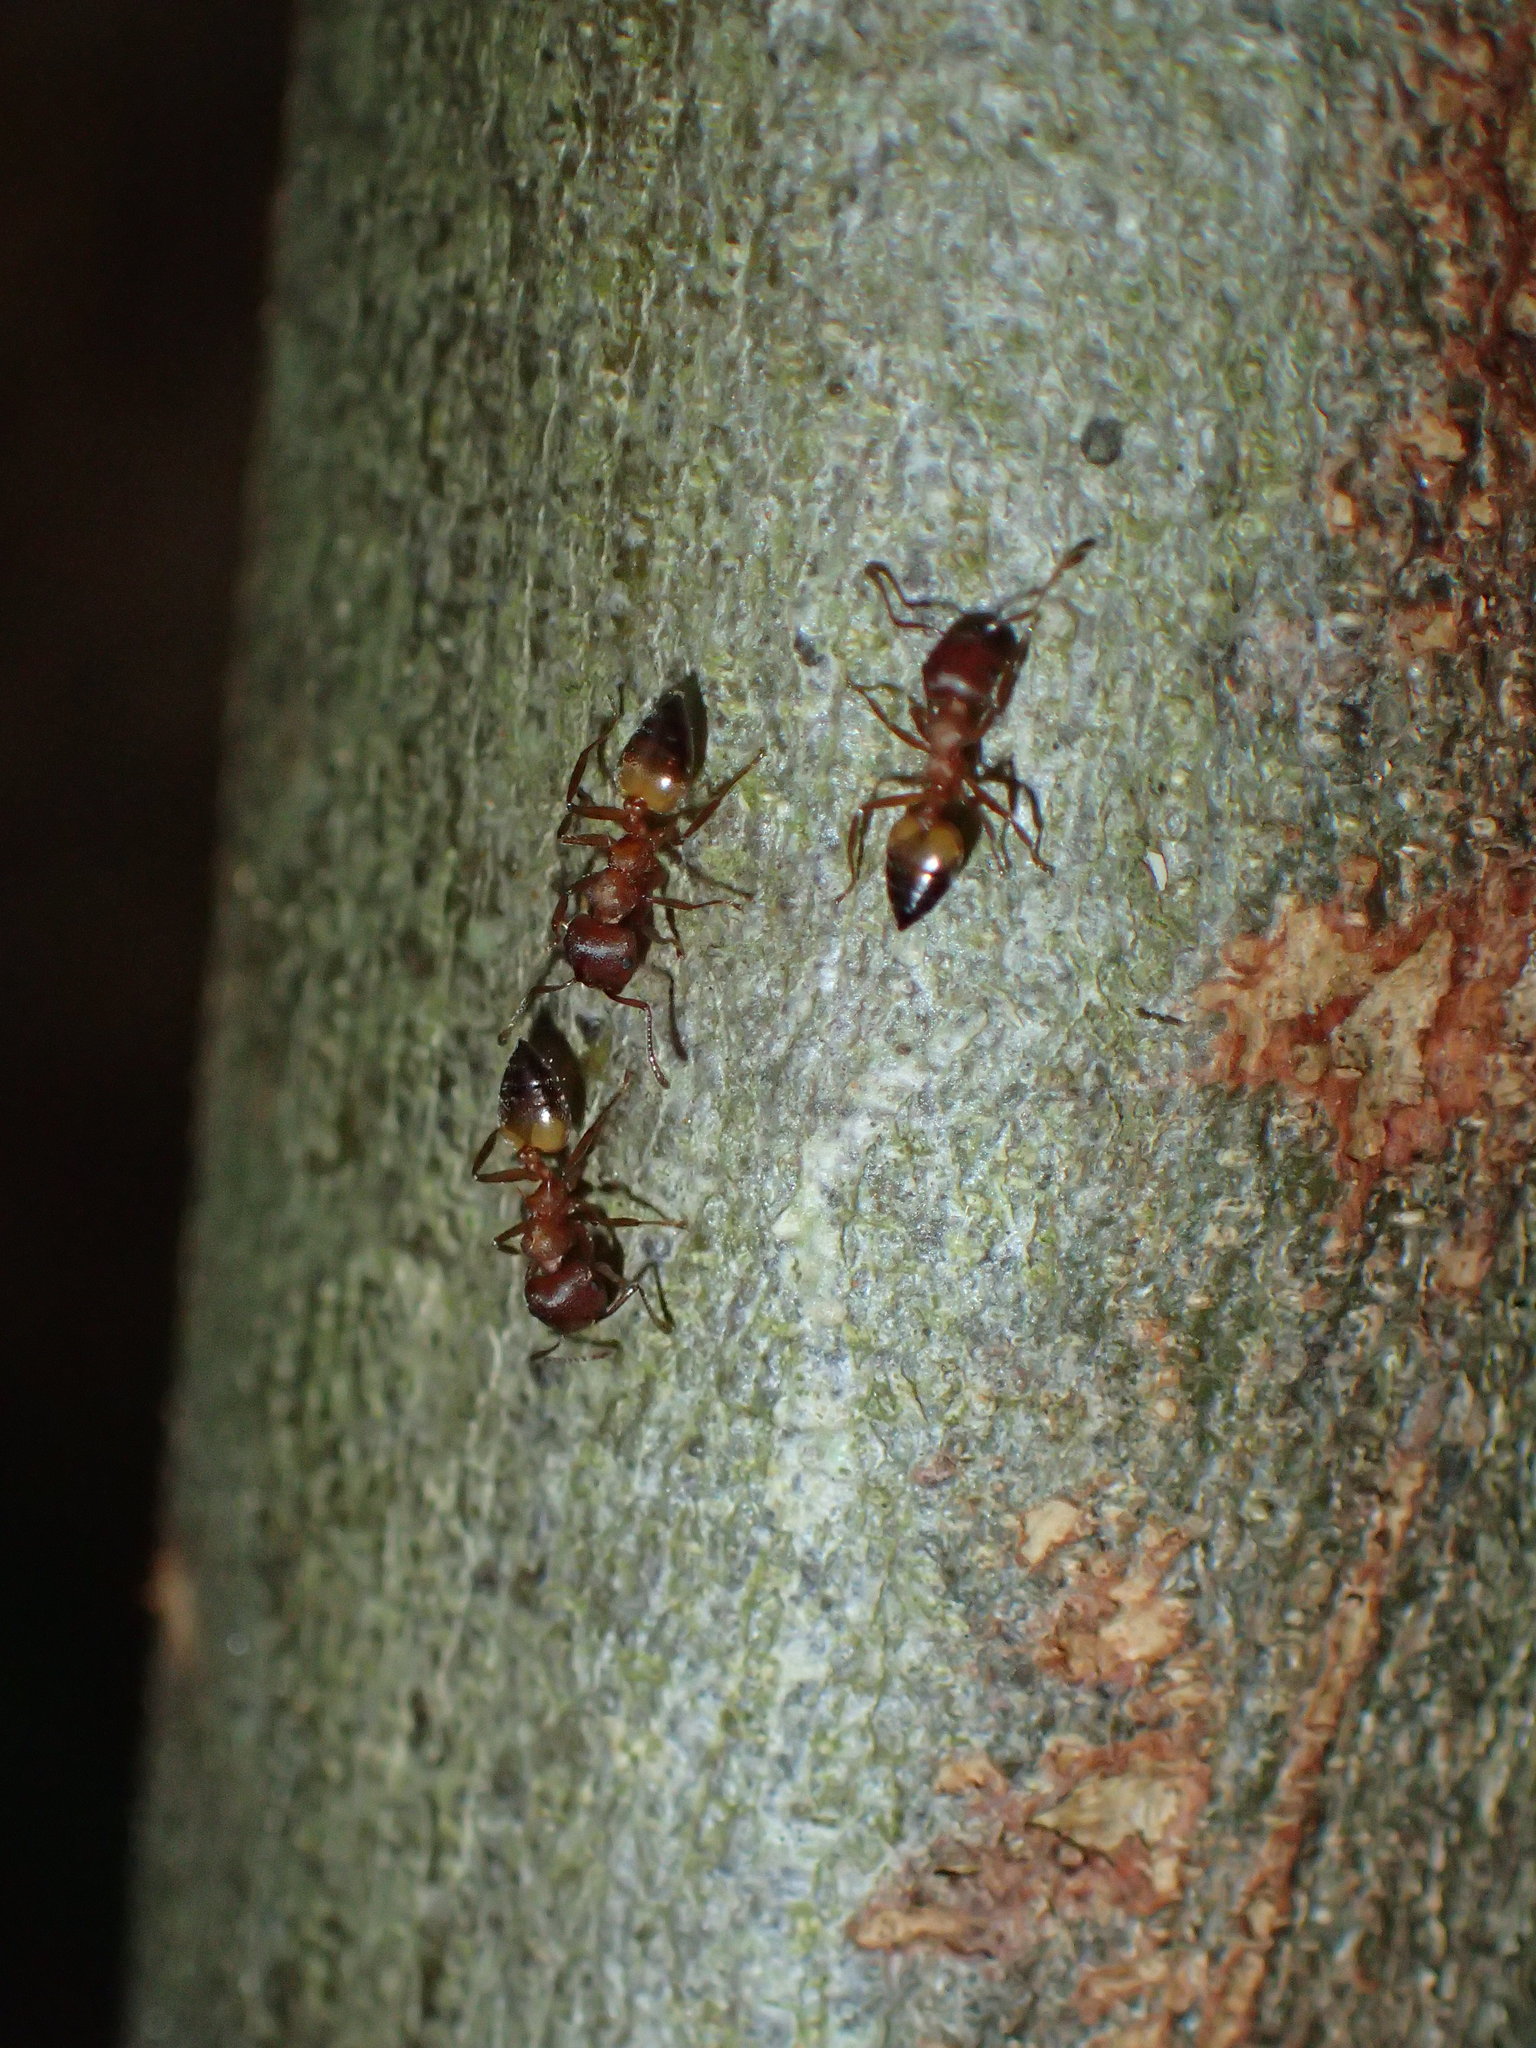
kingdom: Animalia
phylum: Arthropoda
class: Insecta
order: Hymenoptera
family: Formicidae
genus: Crematogaster
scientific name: Crematogaster castanea
